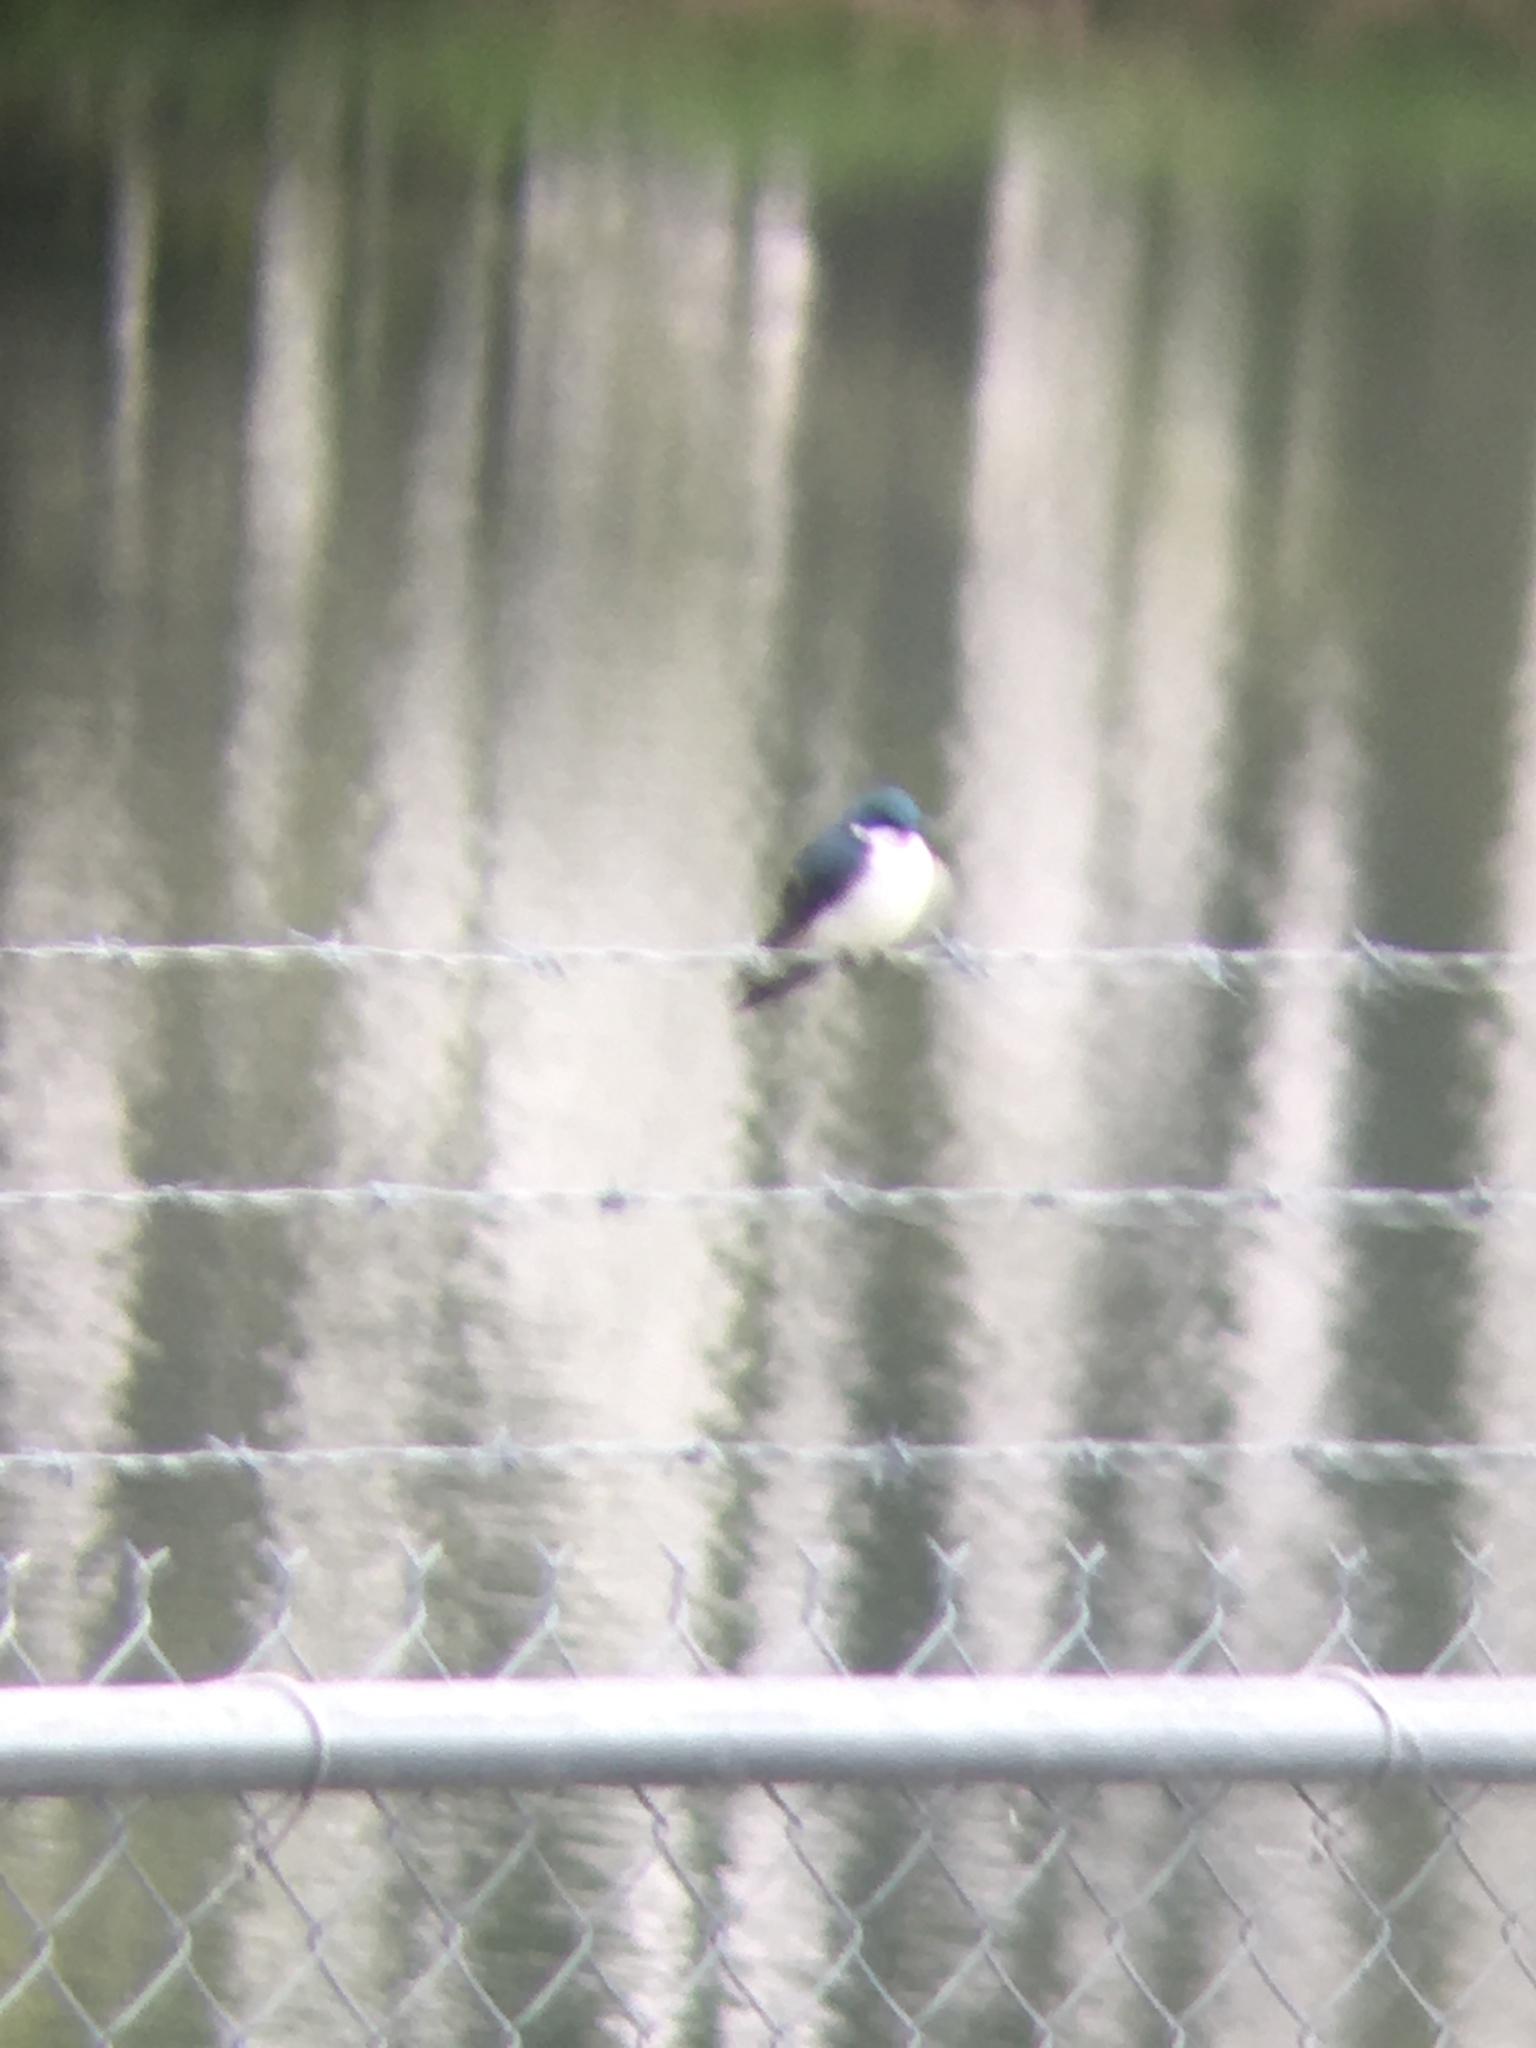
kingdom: Animalia
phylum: Chordata
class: Aves
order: Passeriformes
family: Hirundinidae
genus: Tachycineta
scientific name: Tachycineta bicolor
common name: Tree swallow
